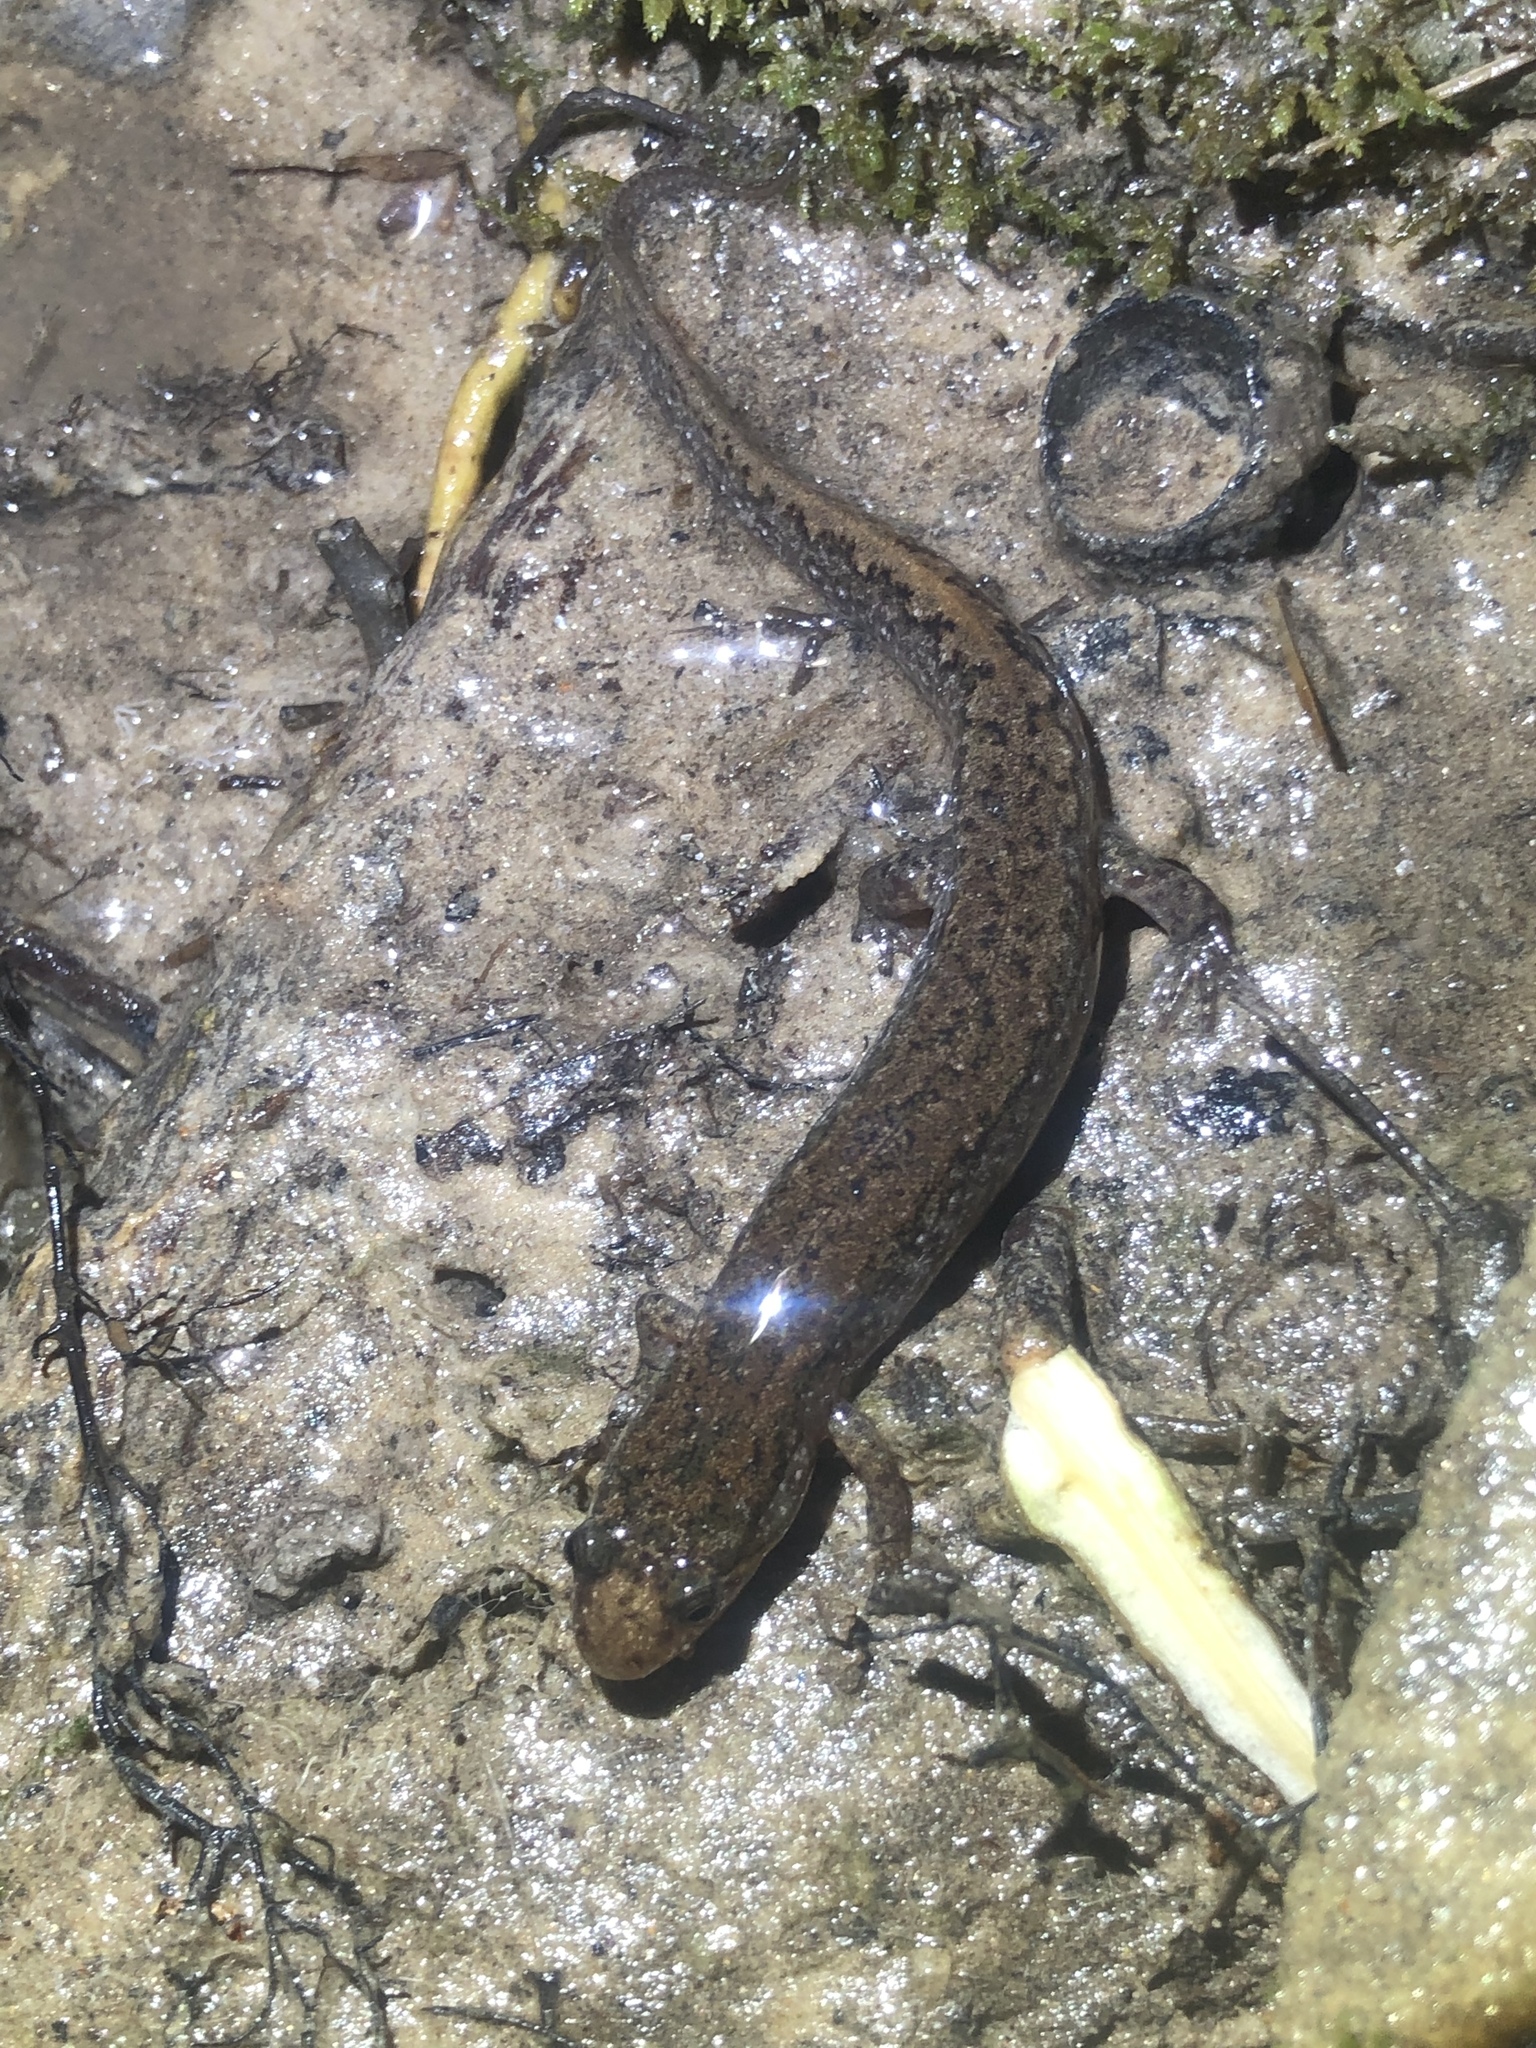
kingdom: Animalia
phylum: Chordata
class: Amphibia
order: Caudata
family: Plethodontidae
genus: Desmognathus
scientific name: Desmognathus
